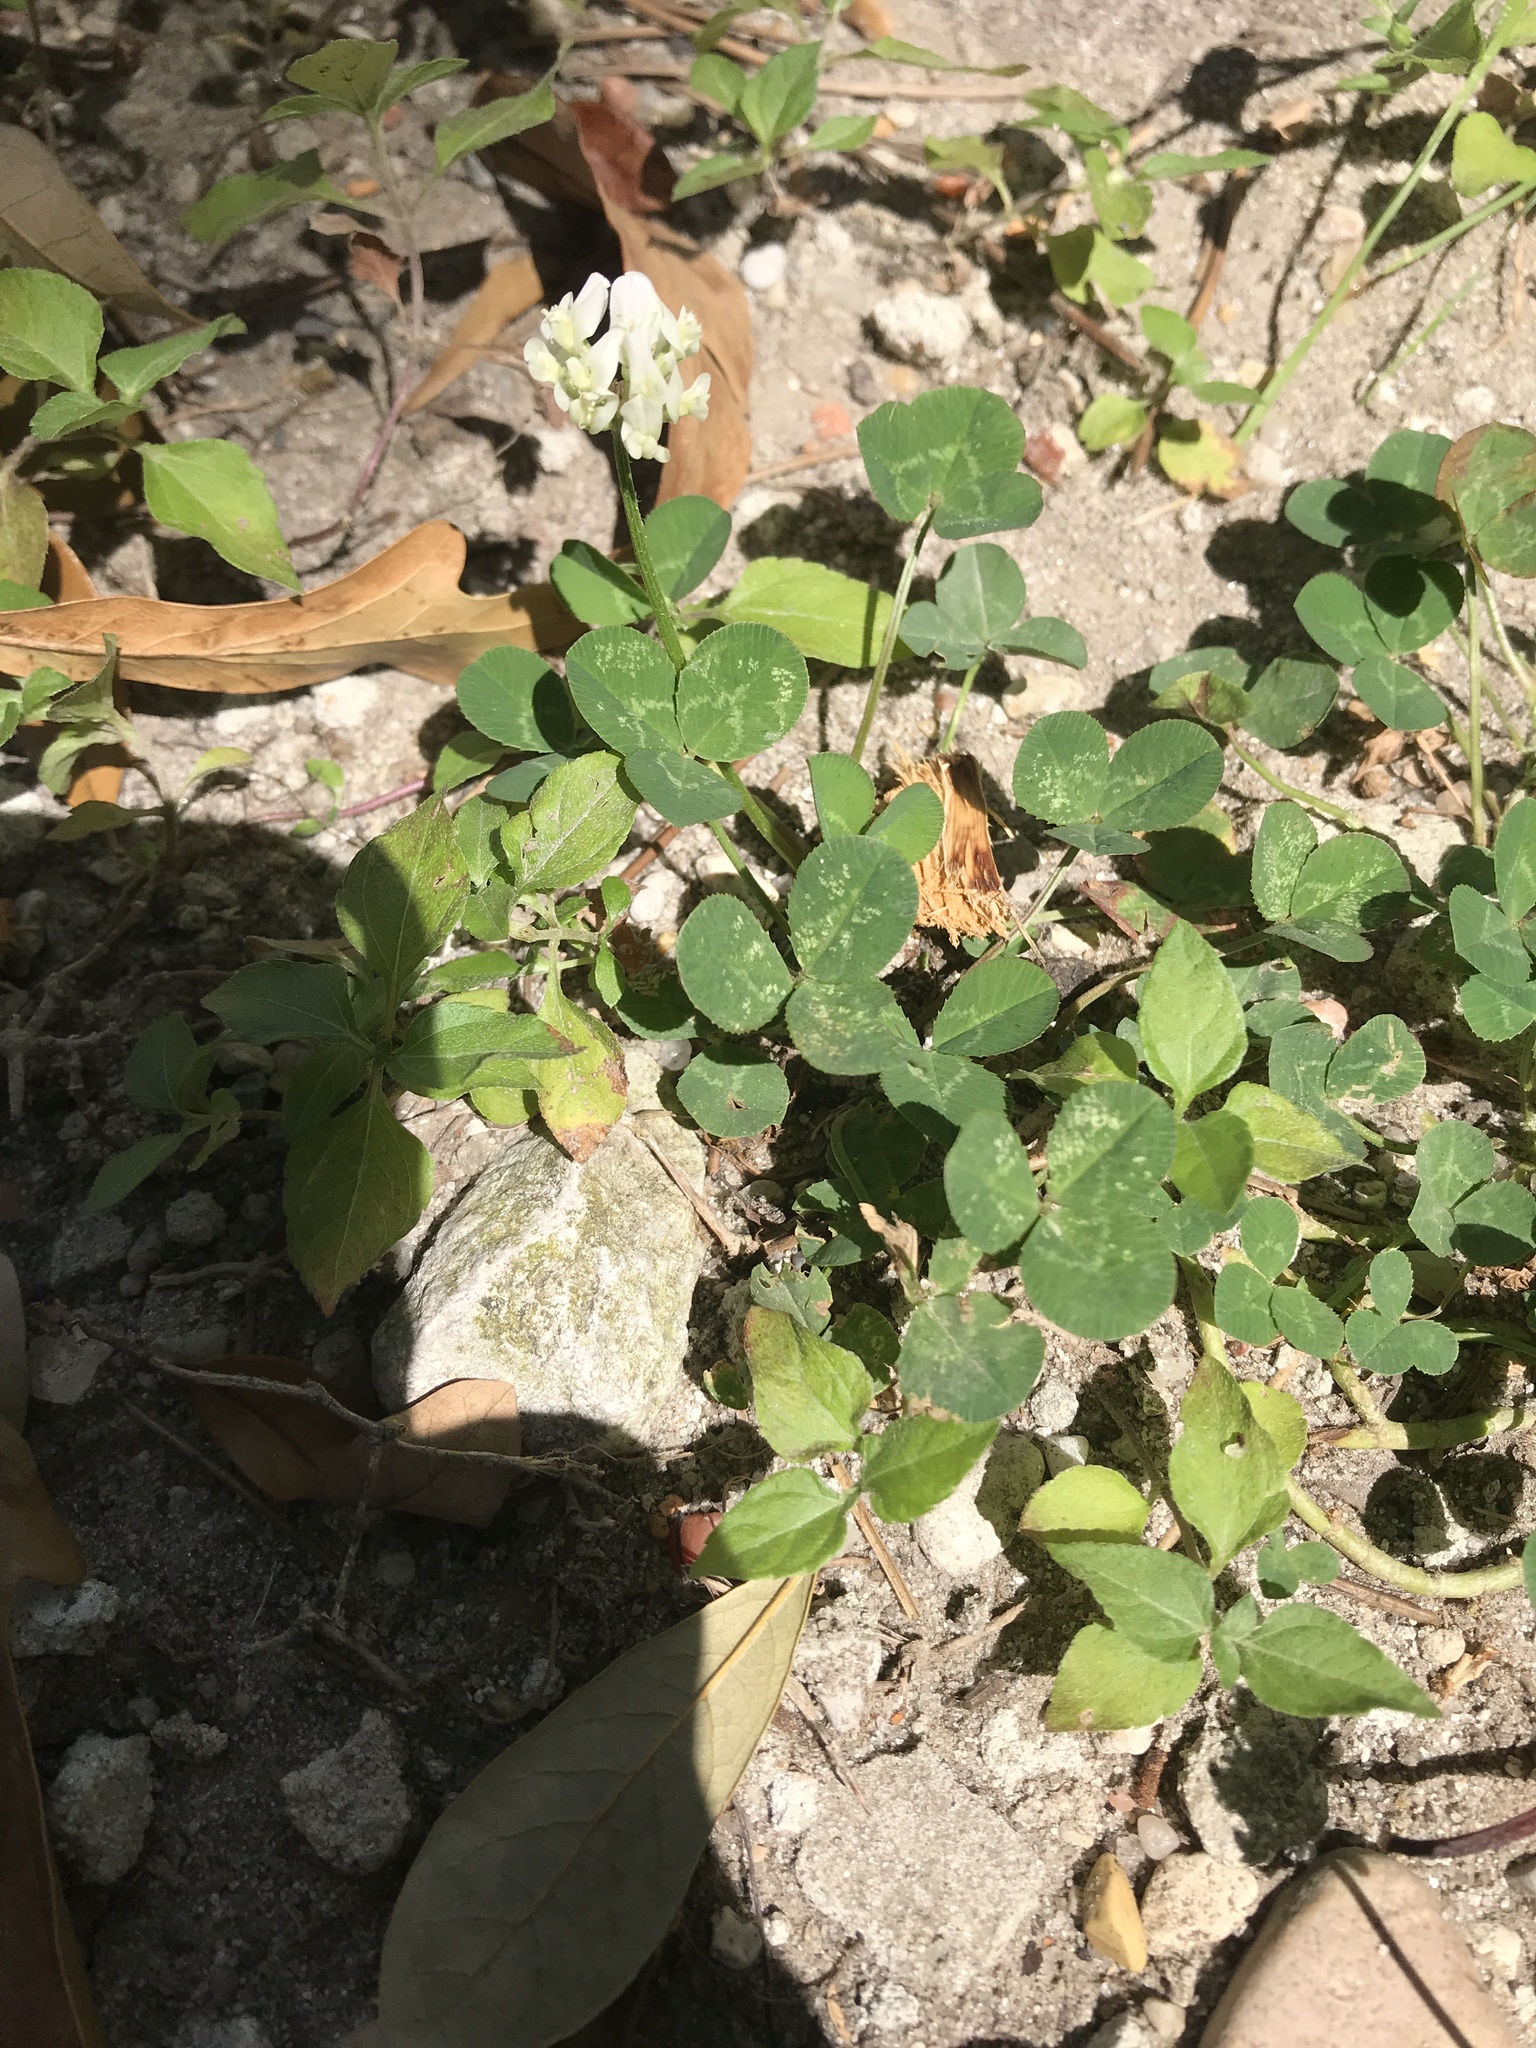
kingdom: Plantae
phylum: Tracheophyta
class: Magnoliopsida
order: Fabales
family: Fabaceae
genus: Trifolium
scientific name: Trifolium repens
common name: White clover
